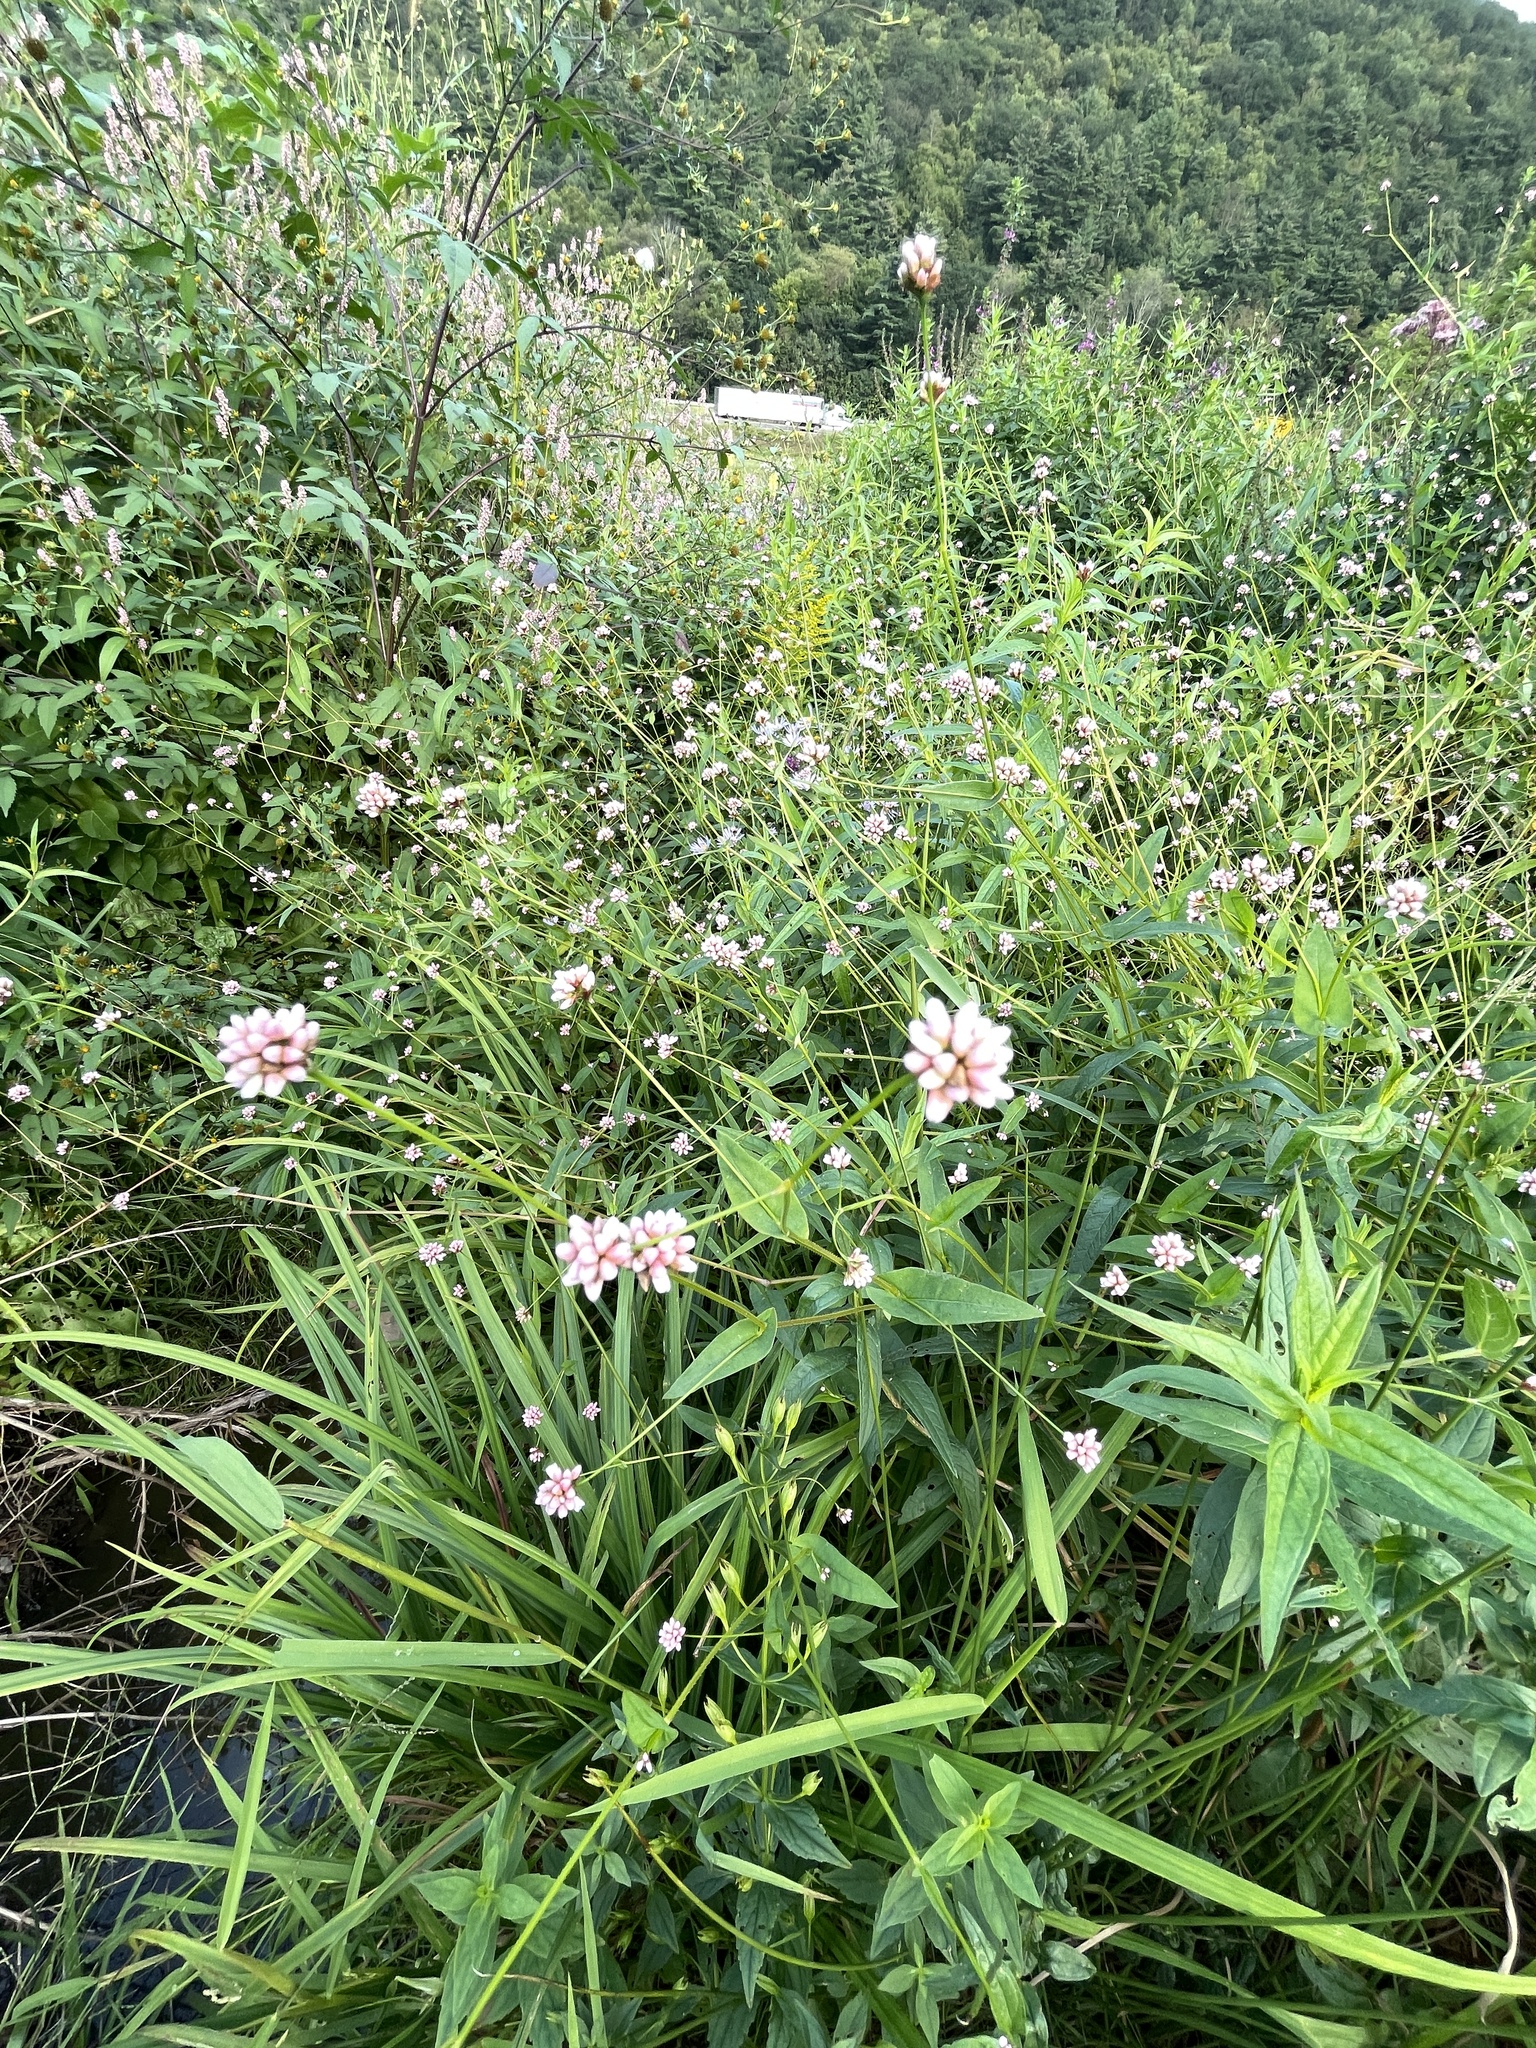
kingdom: Plantae
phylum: Tracheophyta
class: Magnoliopsida
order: Caryophyllales
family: Polygonaceae
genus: Persicaria
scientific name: Persicaria sagittata
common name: American tearthumb
